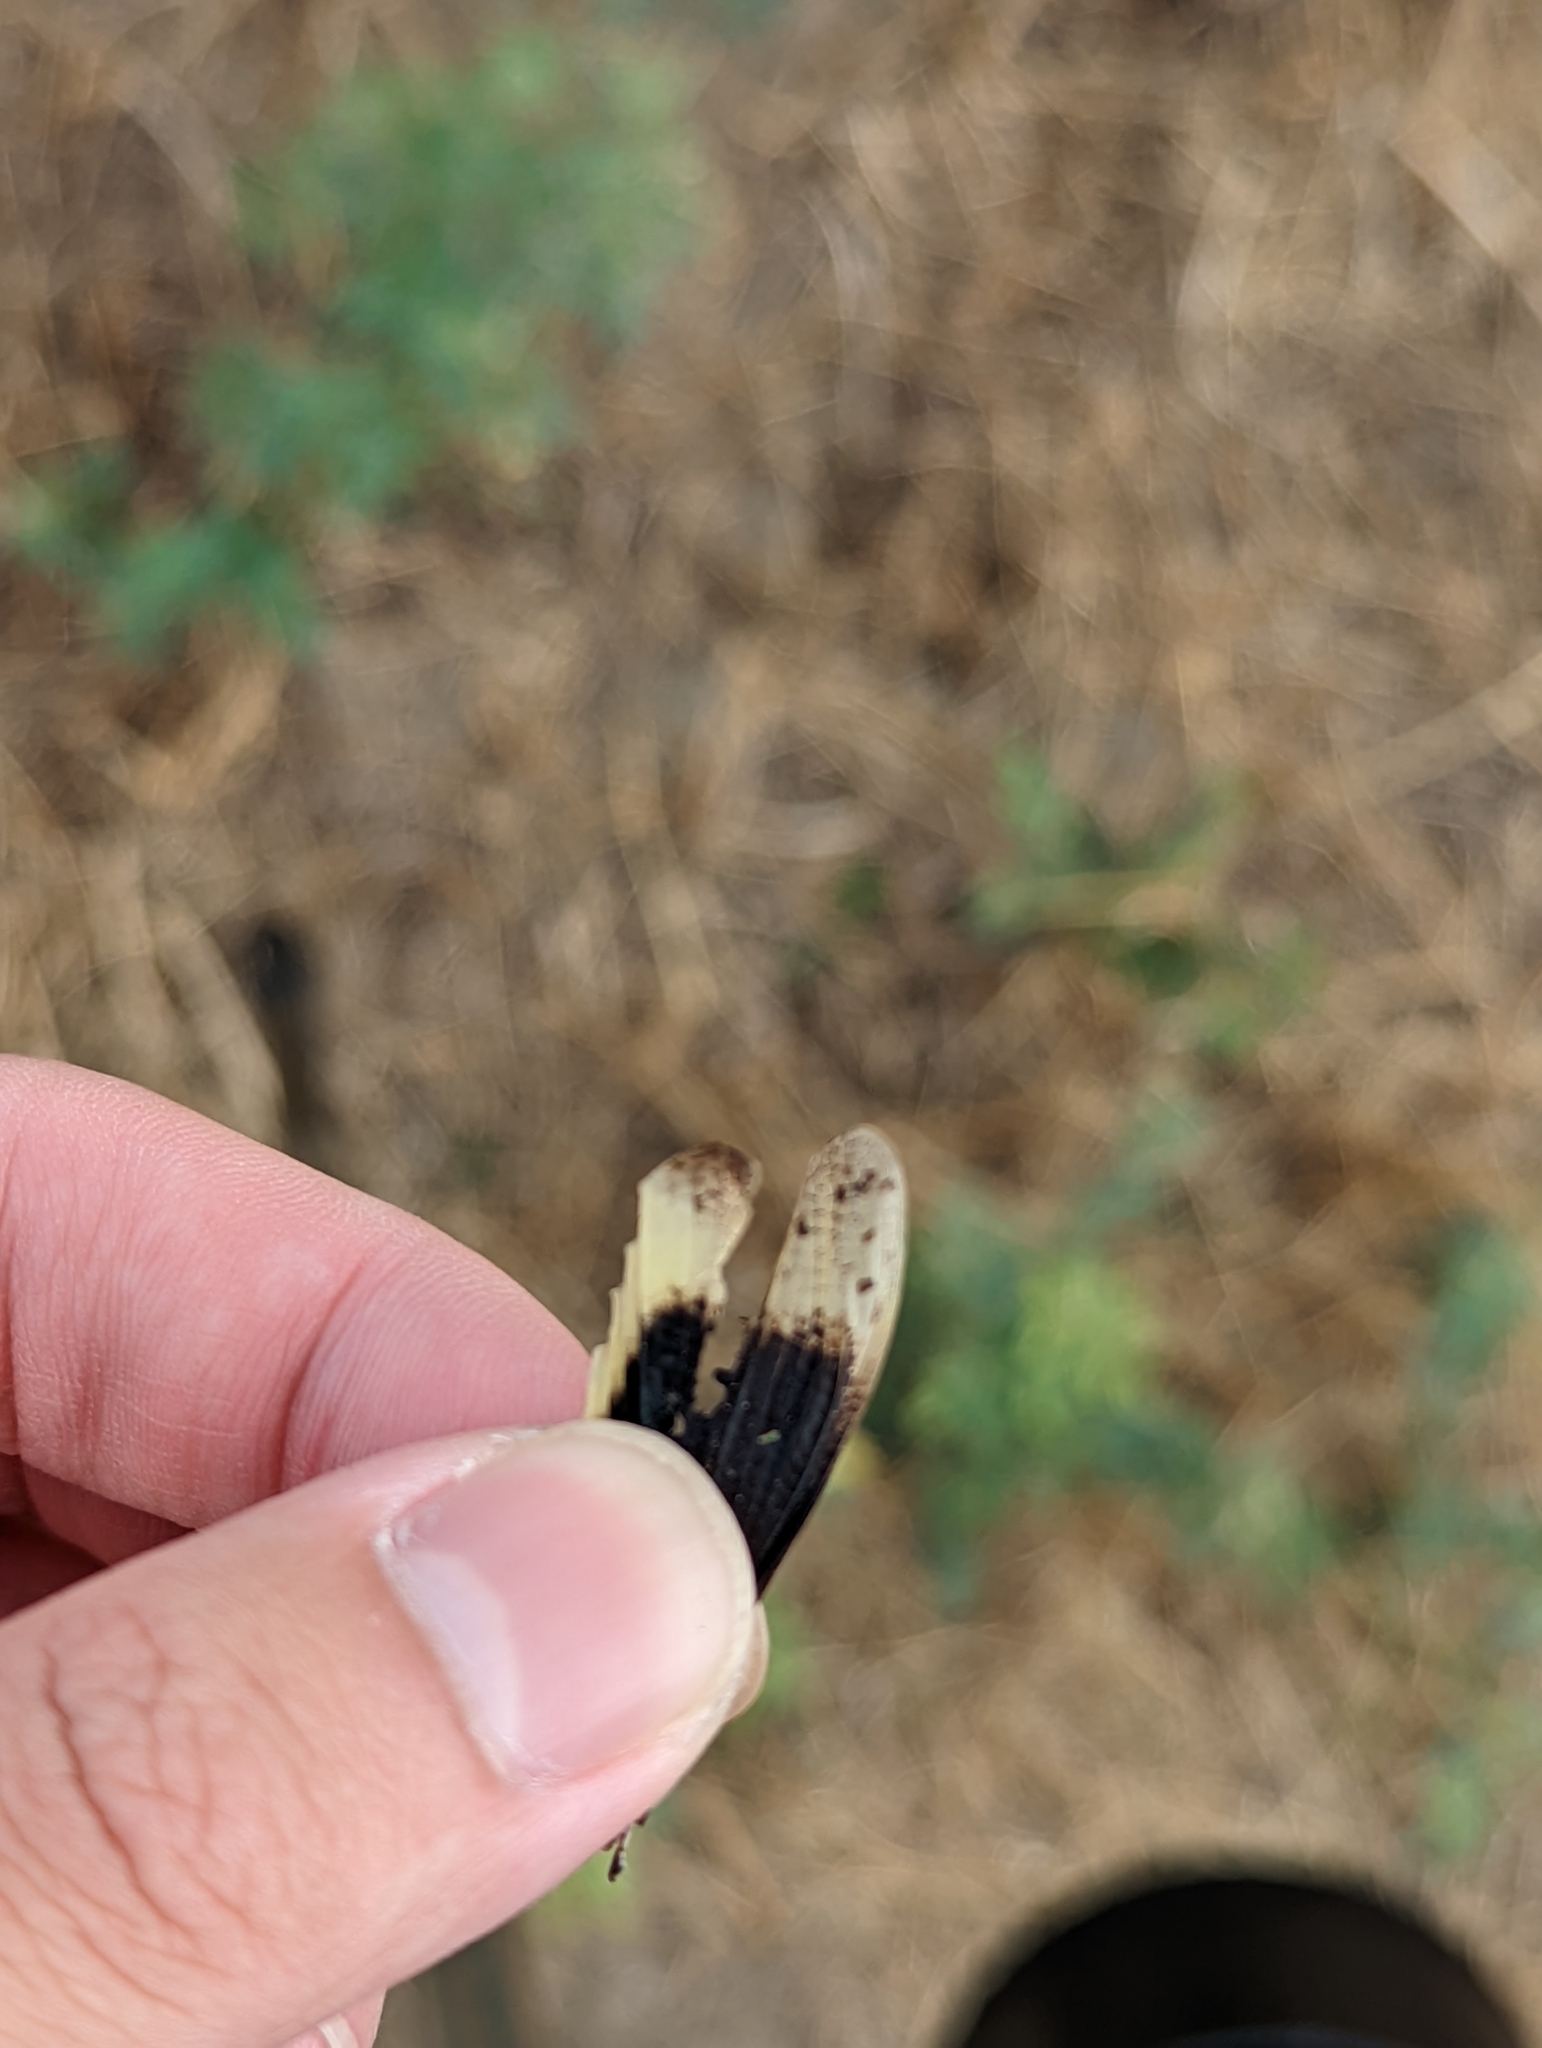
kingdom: Animalia
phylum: Arthropoda
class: Insecta
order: Orthoptera
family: Acrididae
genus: Dissosteira
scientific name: Dissosteira carolina
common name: Carolina grasshopper
